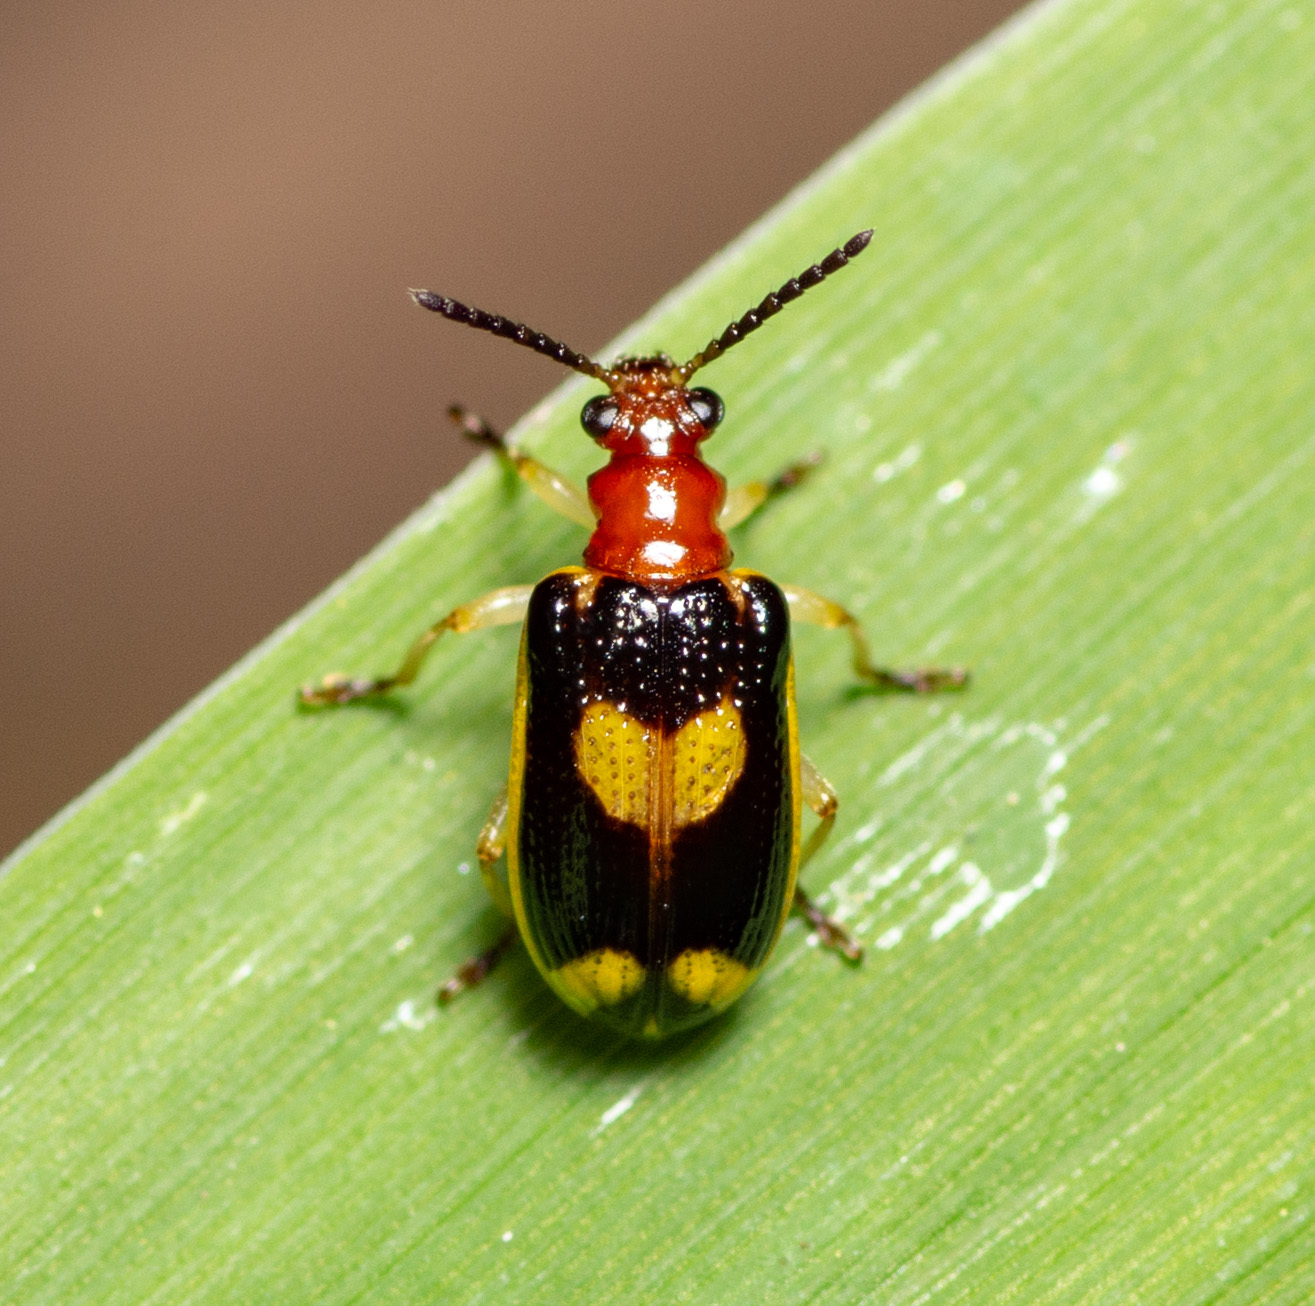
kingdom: Animalia
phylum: Arthropoda
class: Insecta
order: Coleoptera
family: Chrysomelidae
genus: Lema
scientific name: Lema opulenta
